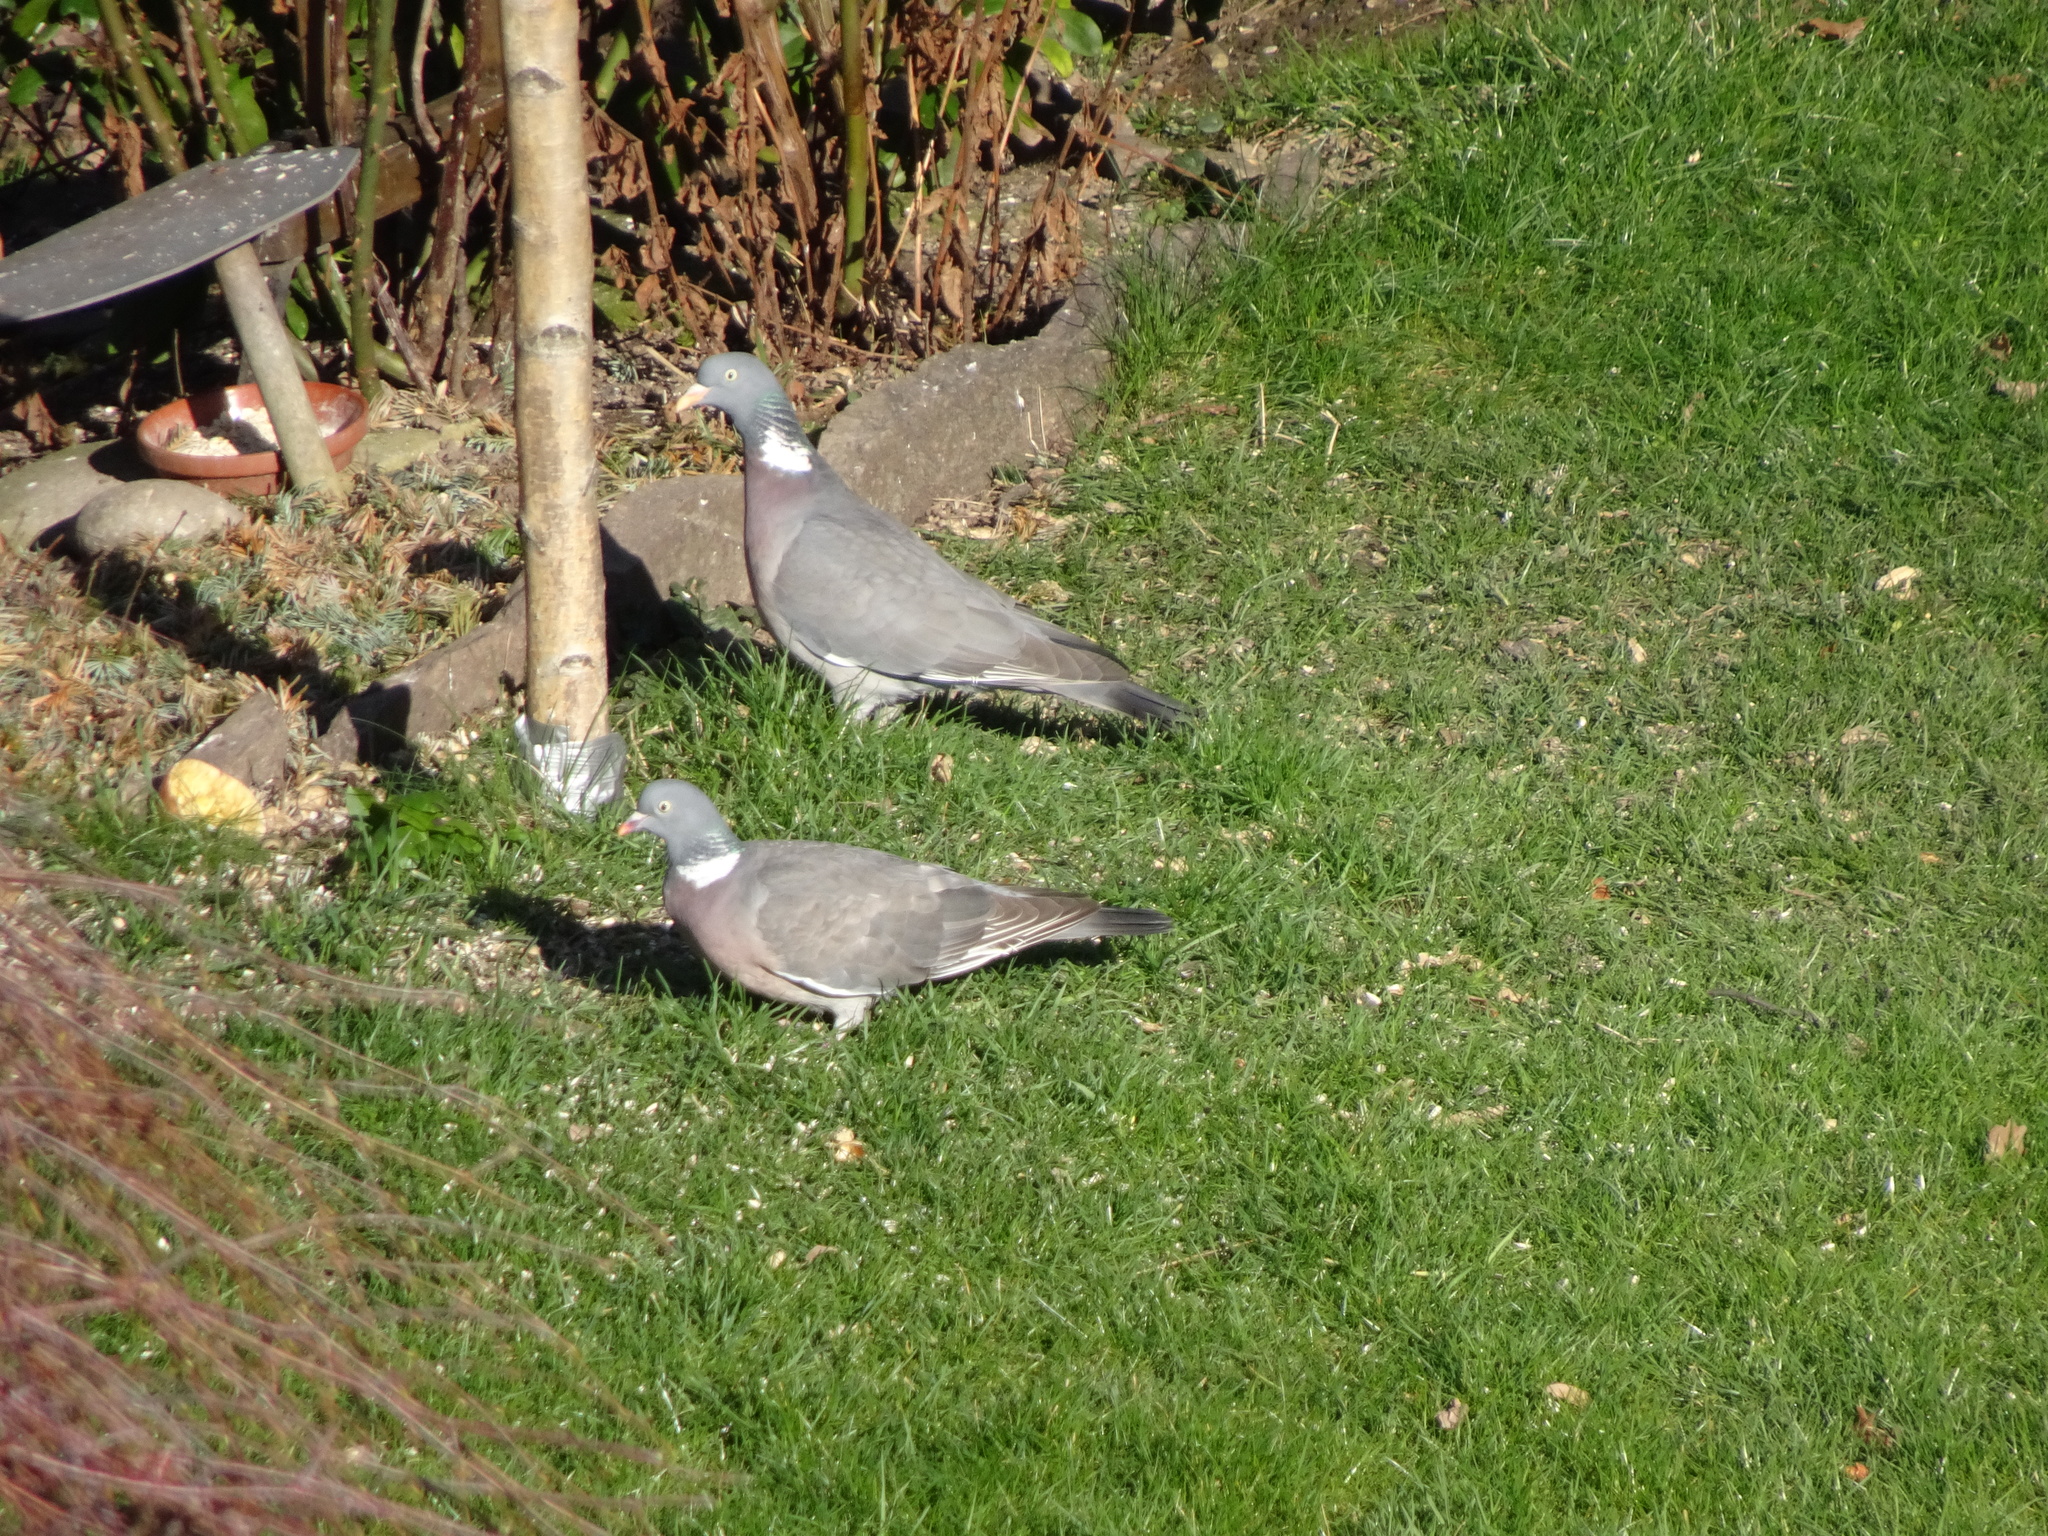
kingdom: Animalia
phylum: Chordata
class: Aves
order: Columbiformes
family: Columbidae
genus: Columba
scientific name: Columba palumbus
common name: Common wood pigeon
